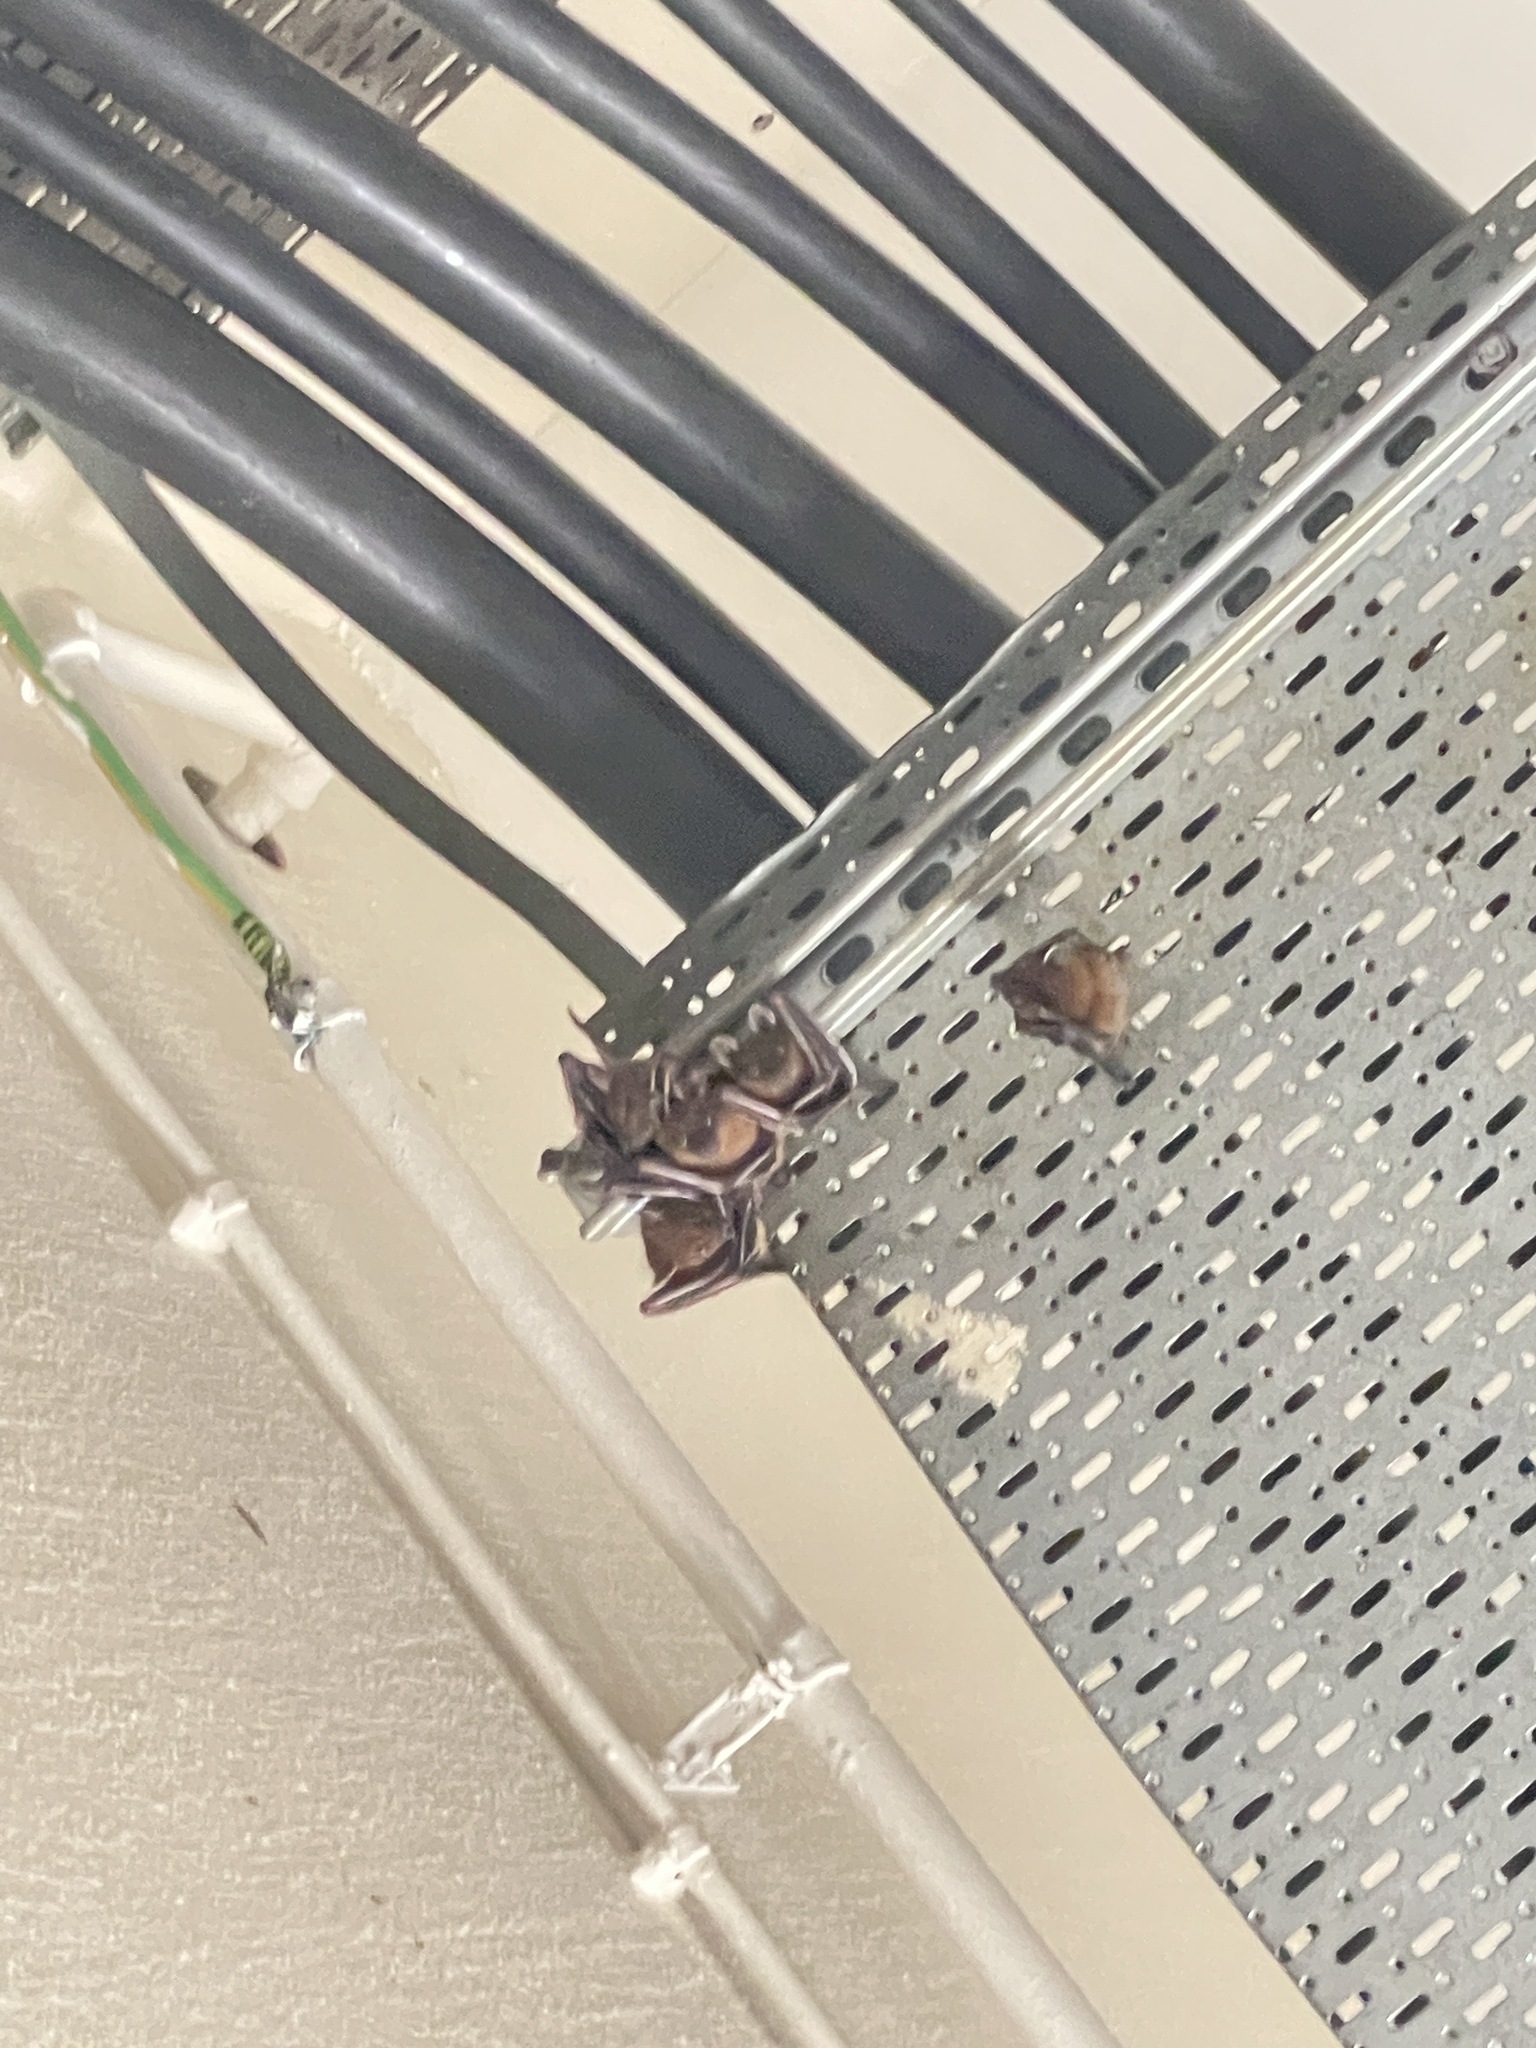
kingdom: Animalia
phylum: Chordata
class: Mammalia
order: Chiroptera
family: Pteropodidae
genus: Cynopterus
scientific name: Cynopterus sphinx
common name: Greater short-nosed fruit bat
